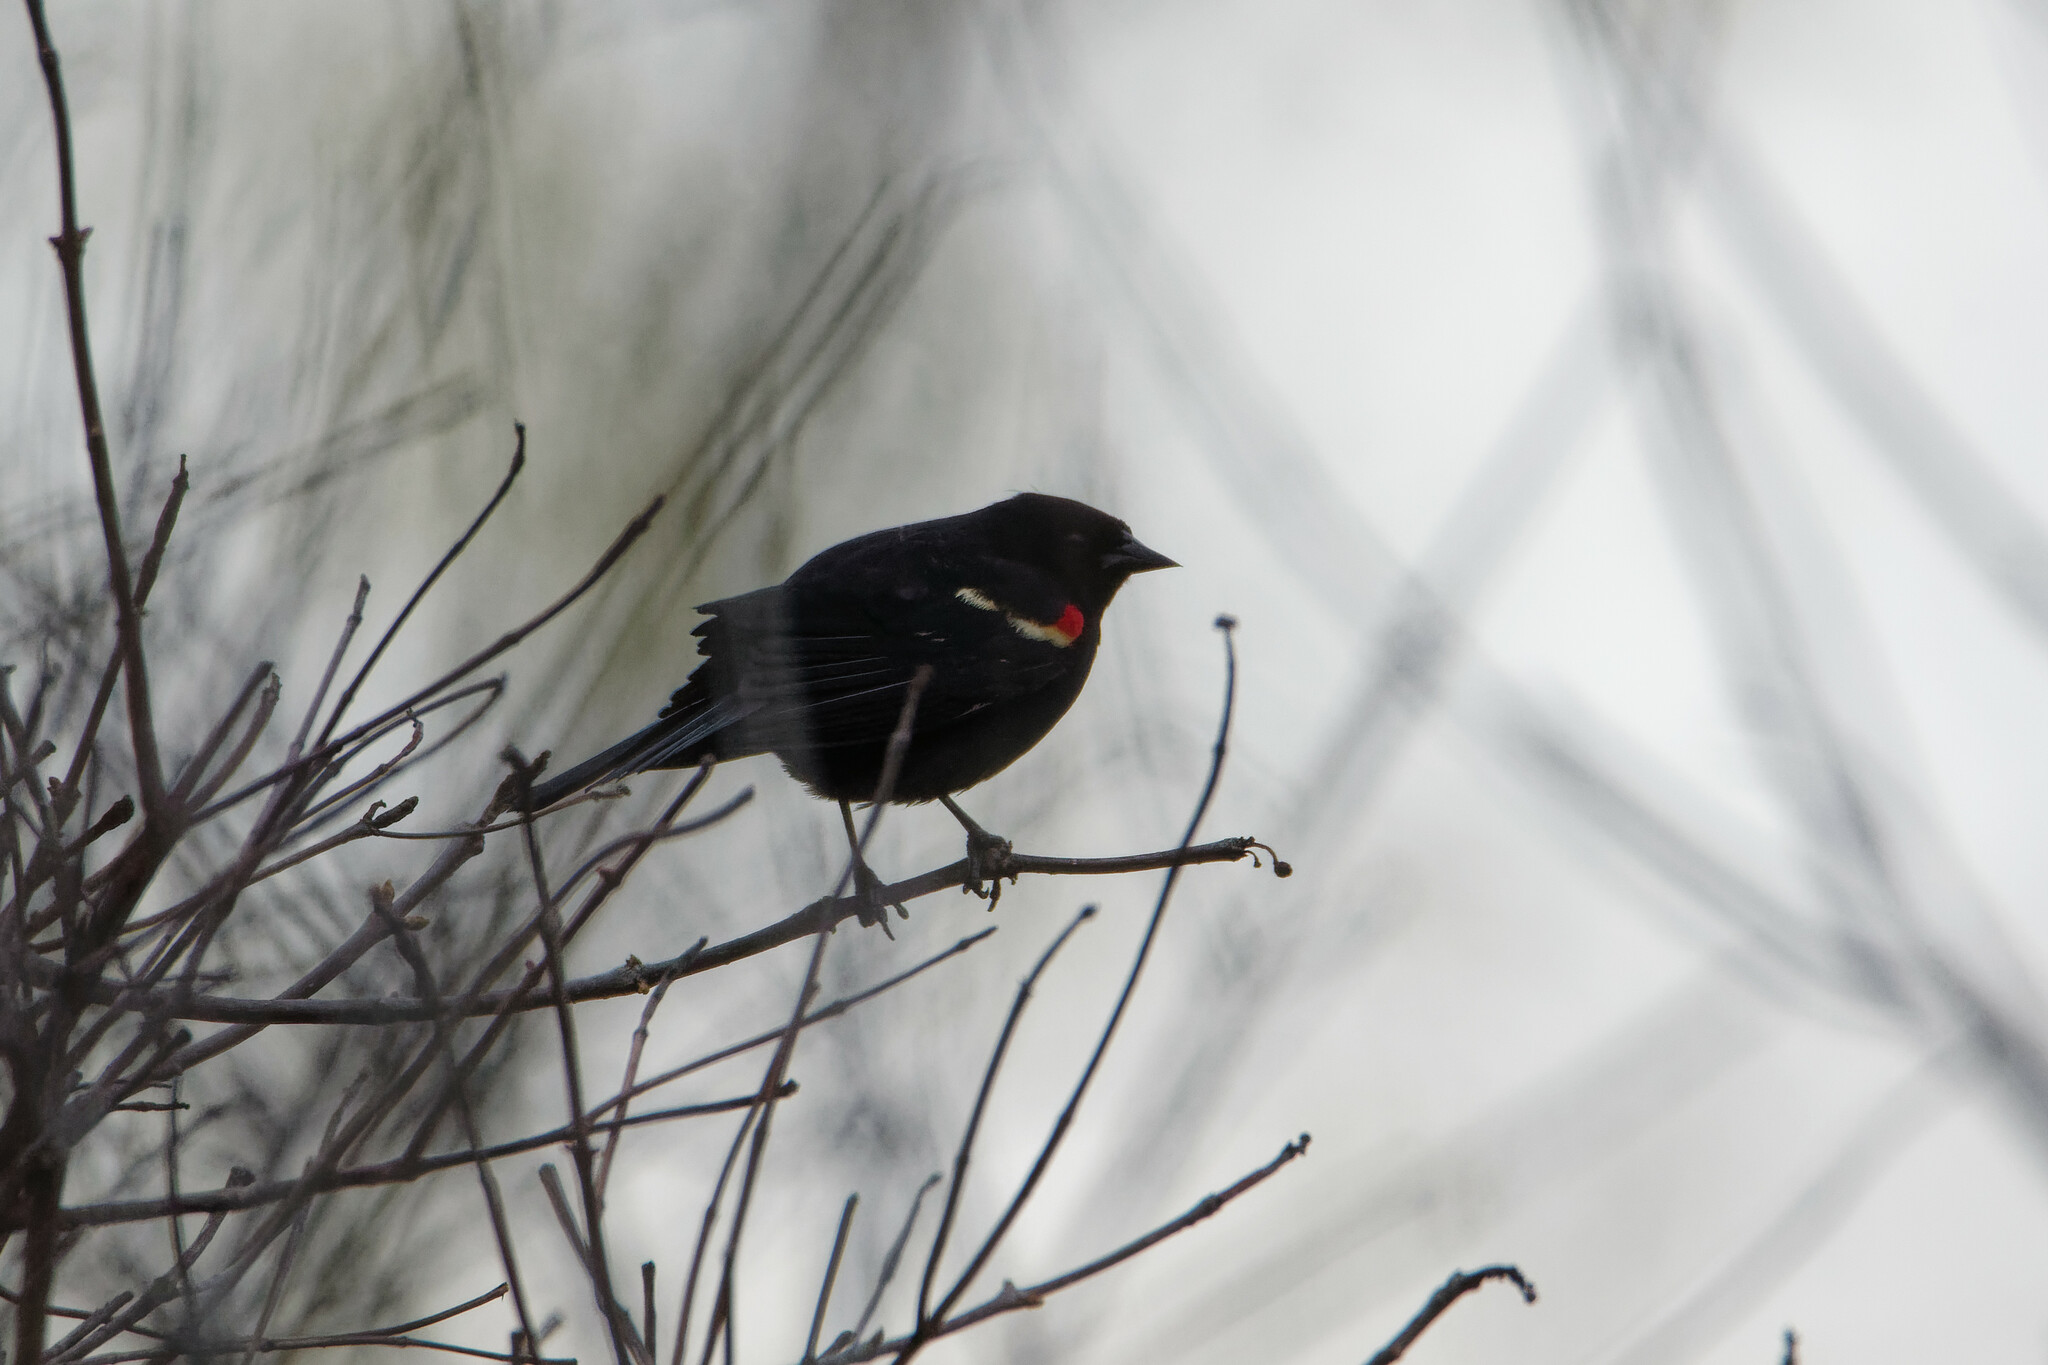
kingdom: Animalia
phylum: Chordata
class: Aves
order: Passeriformes
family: Icteridae
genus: Agelaius
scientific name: Agelaius phoeniceus
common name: Red-winged blackbird
